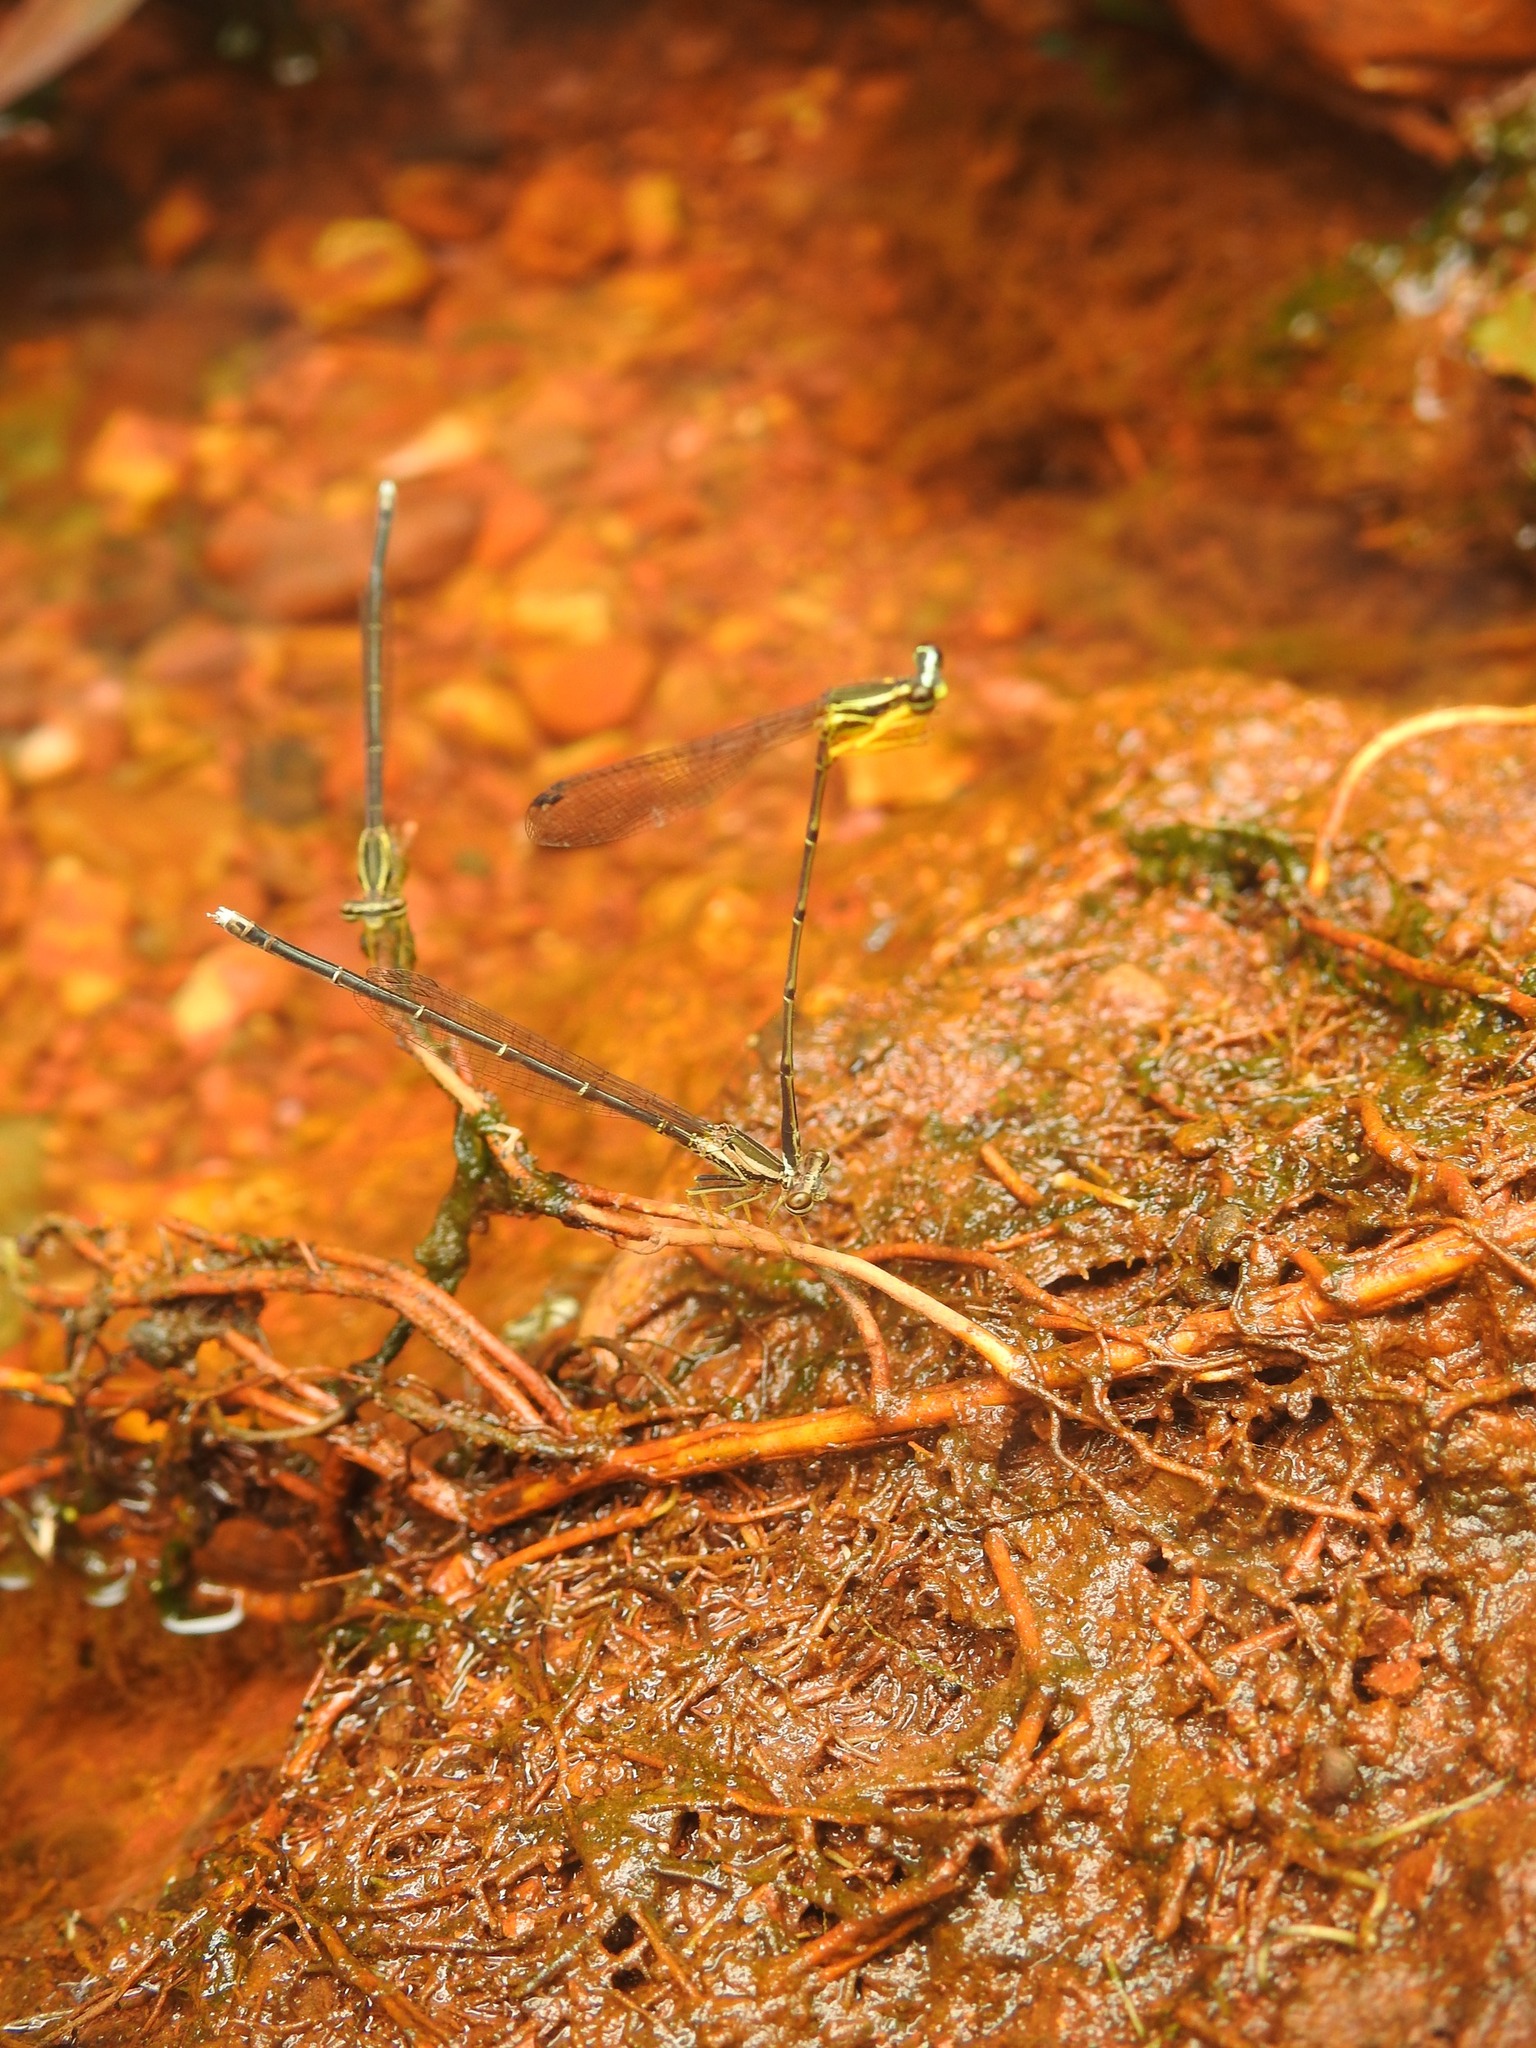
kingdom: Animalia
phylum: Arthropoda
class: Insecta
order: Odonata
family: Platycnemididae
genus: Copera
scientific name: Copera marginipes
